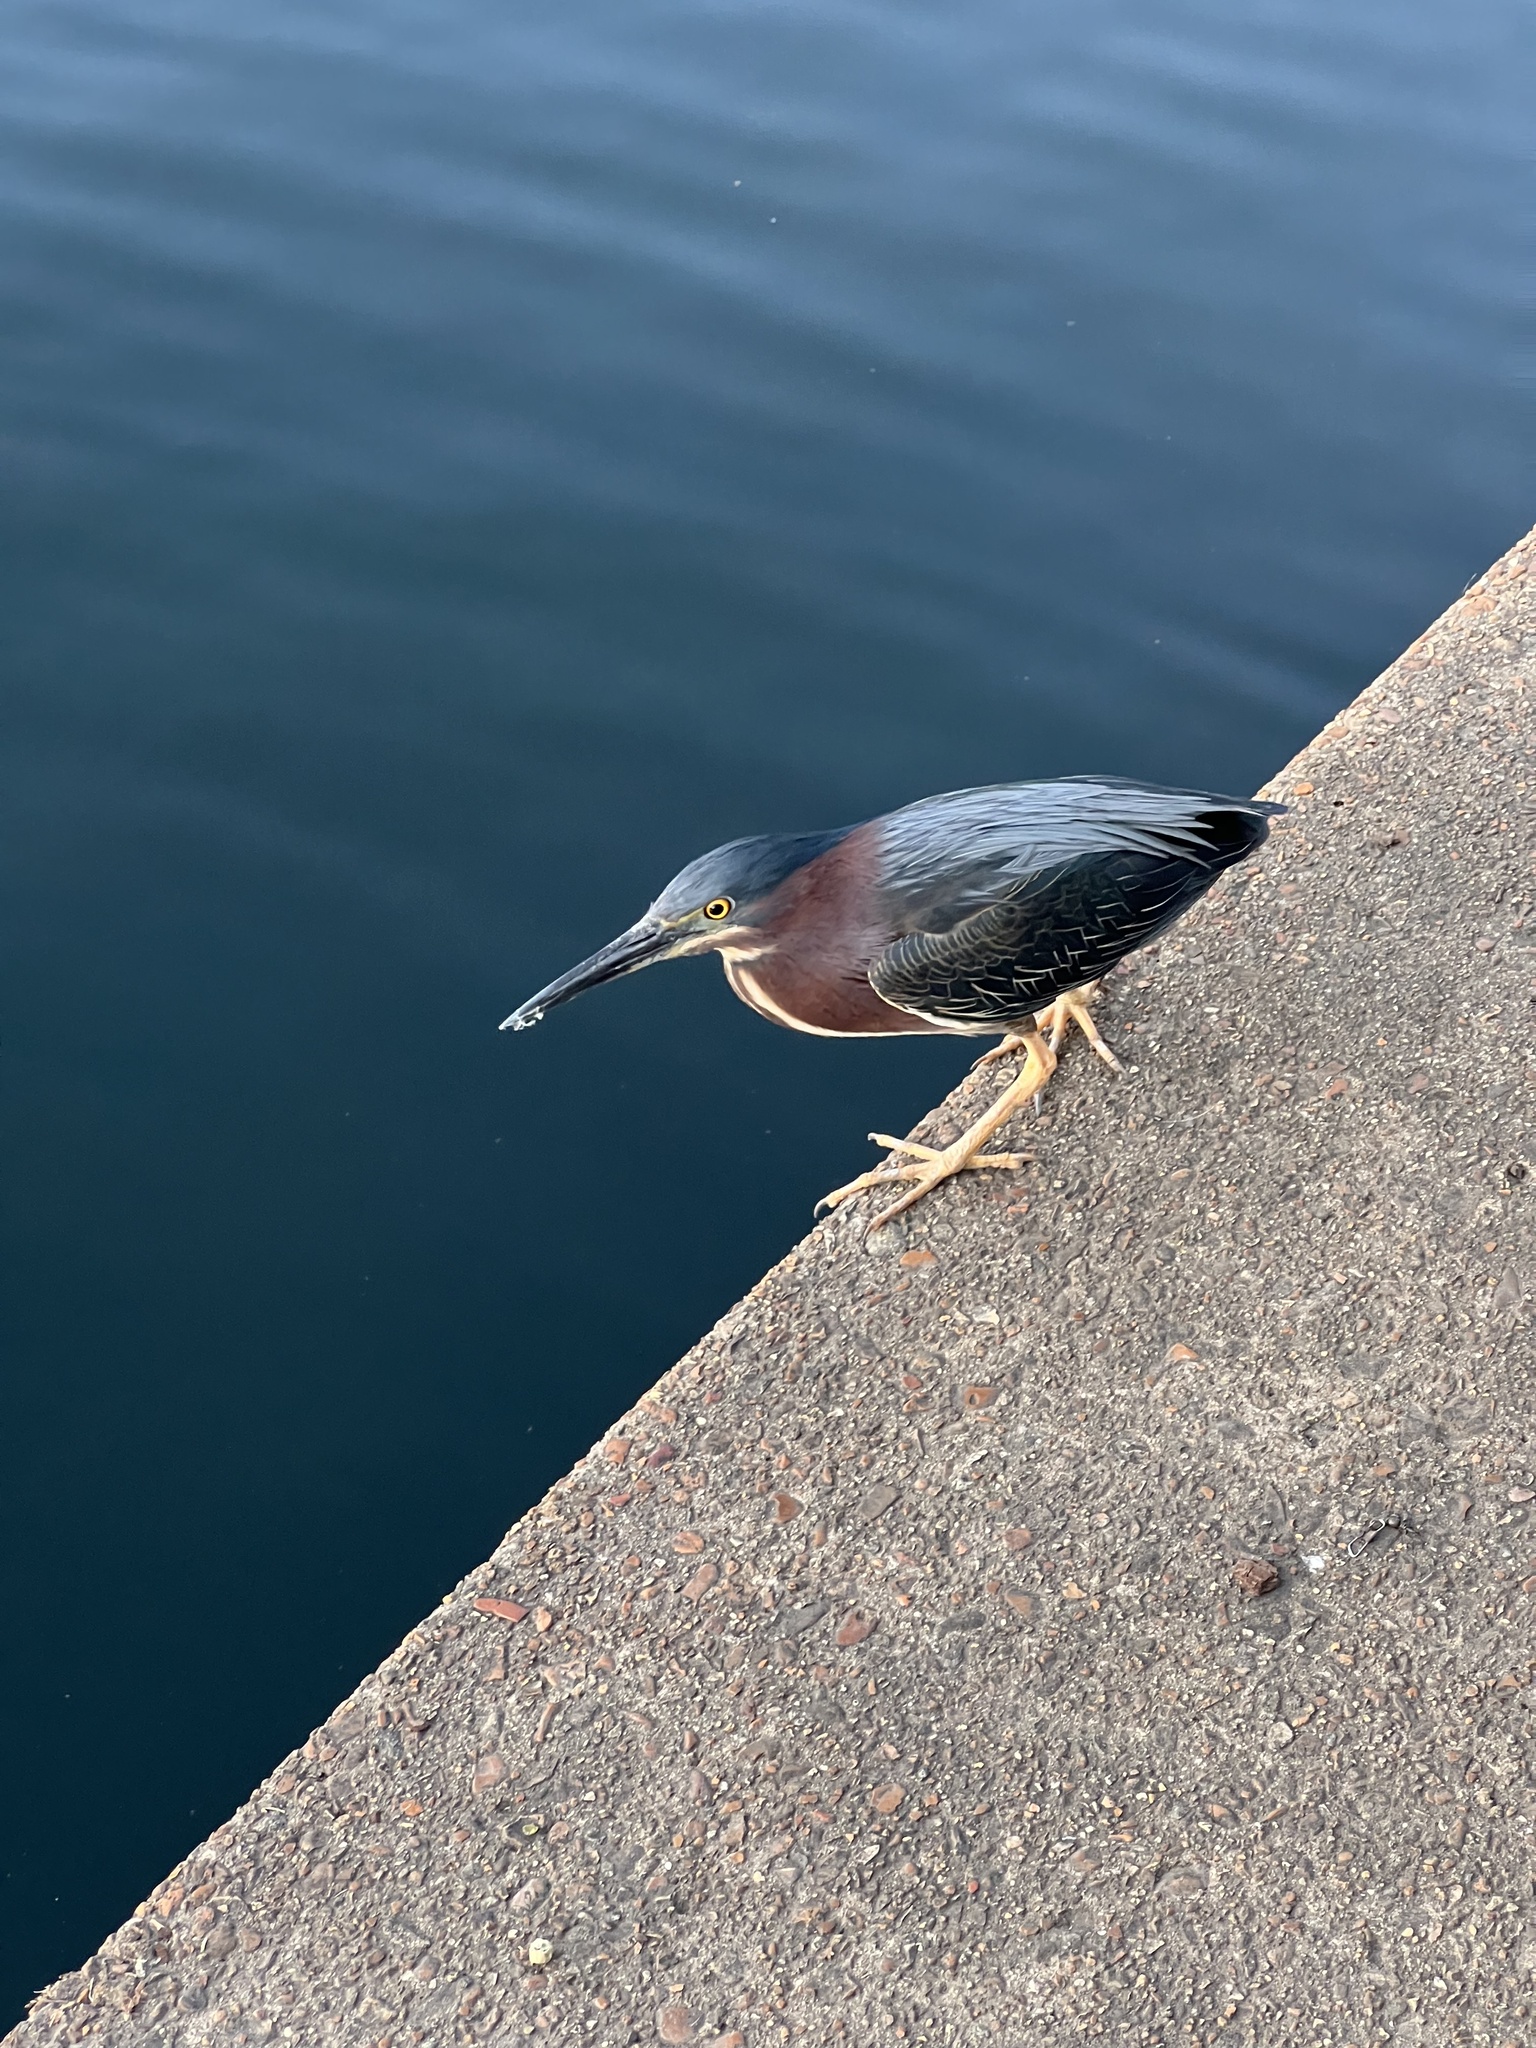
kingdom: Animalia
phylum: Chordata
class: Aves
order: Pelecaniformes
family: Ardeidae
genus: Butorides
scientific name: Butorides virescens
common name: Green heron
